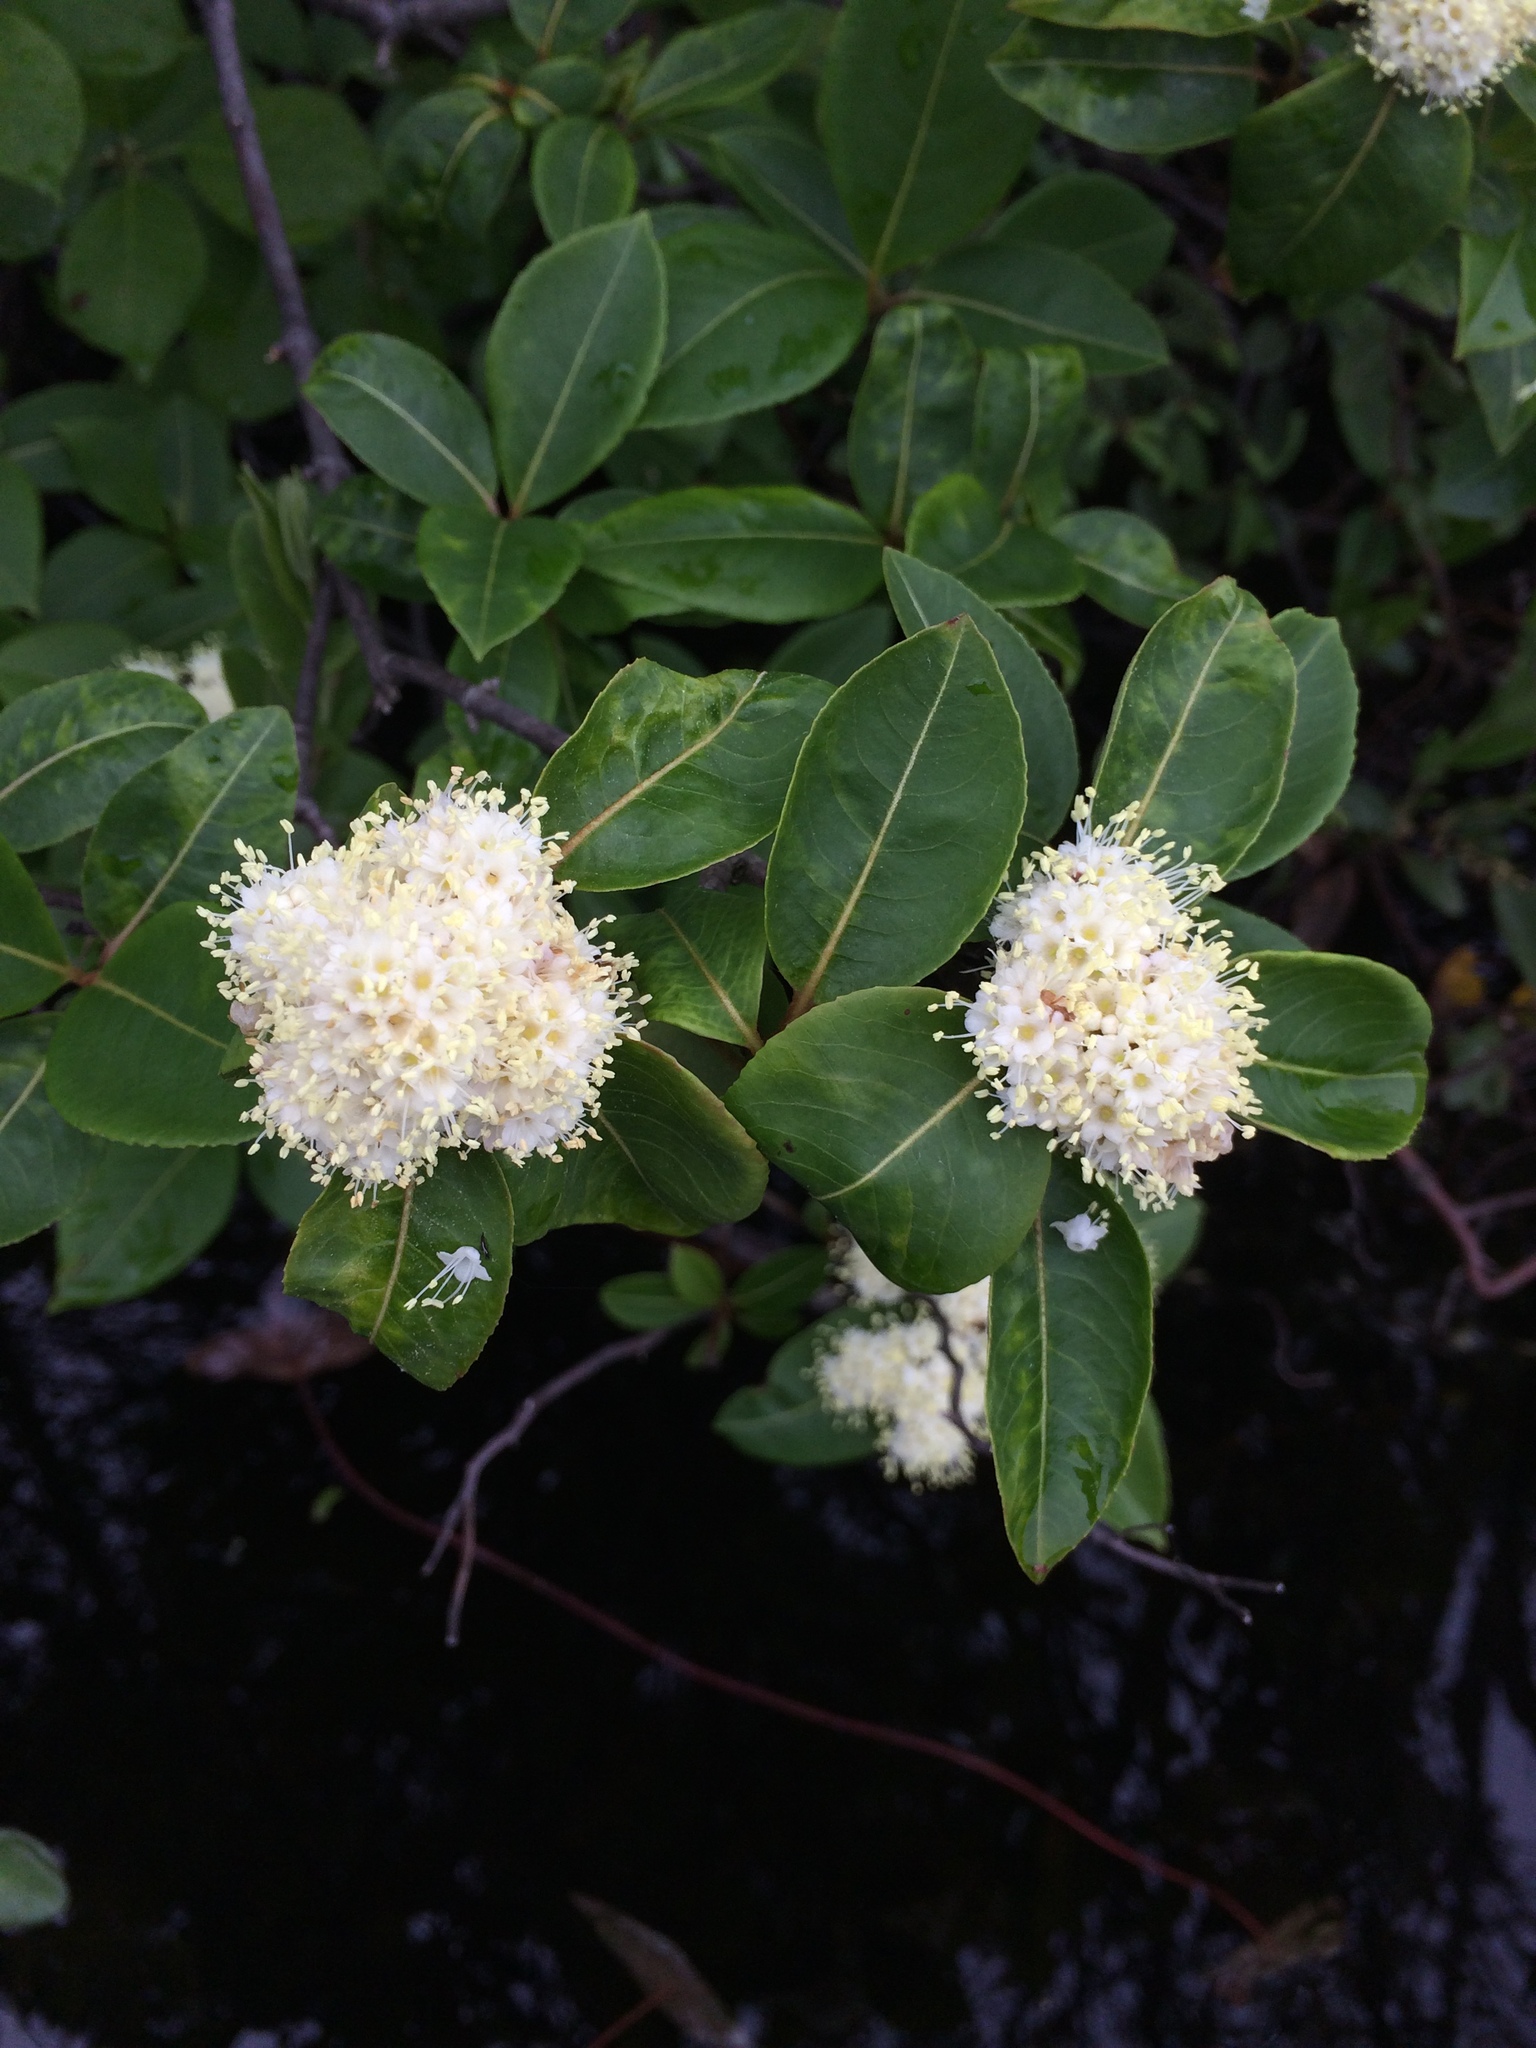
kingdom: Plantae
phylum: Tracheophyta
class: Magnoliopsida
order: Dipsacales
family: Viburnaceae
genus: Viburnum
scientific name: Viburnum cassinoides
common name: Swamp haw
